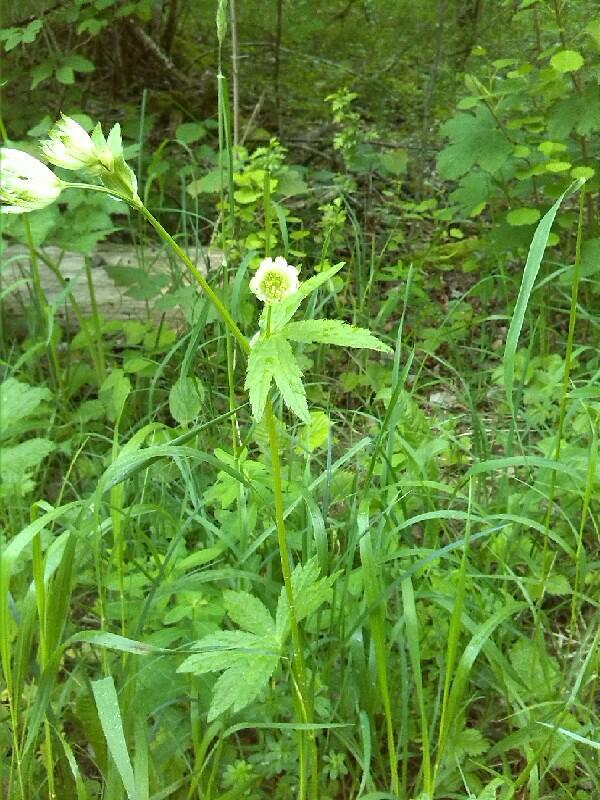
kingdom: Plantae
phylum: Tracheophyta
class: Magnoliopsida
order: Apiales
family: Apiaceae
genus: Astrantia
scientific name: Astrantia major
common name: Greater masterwort
